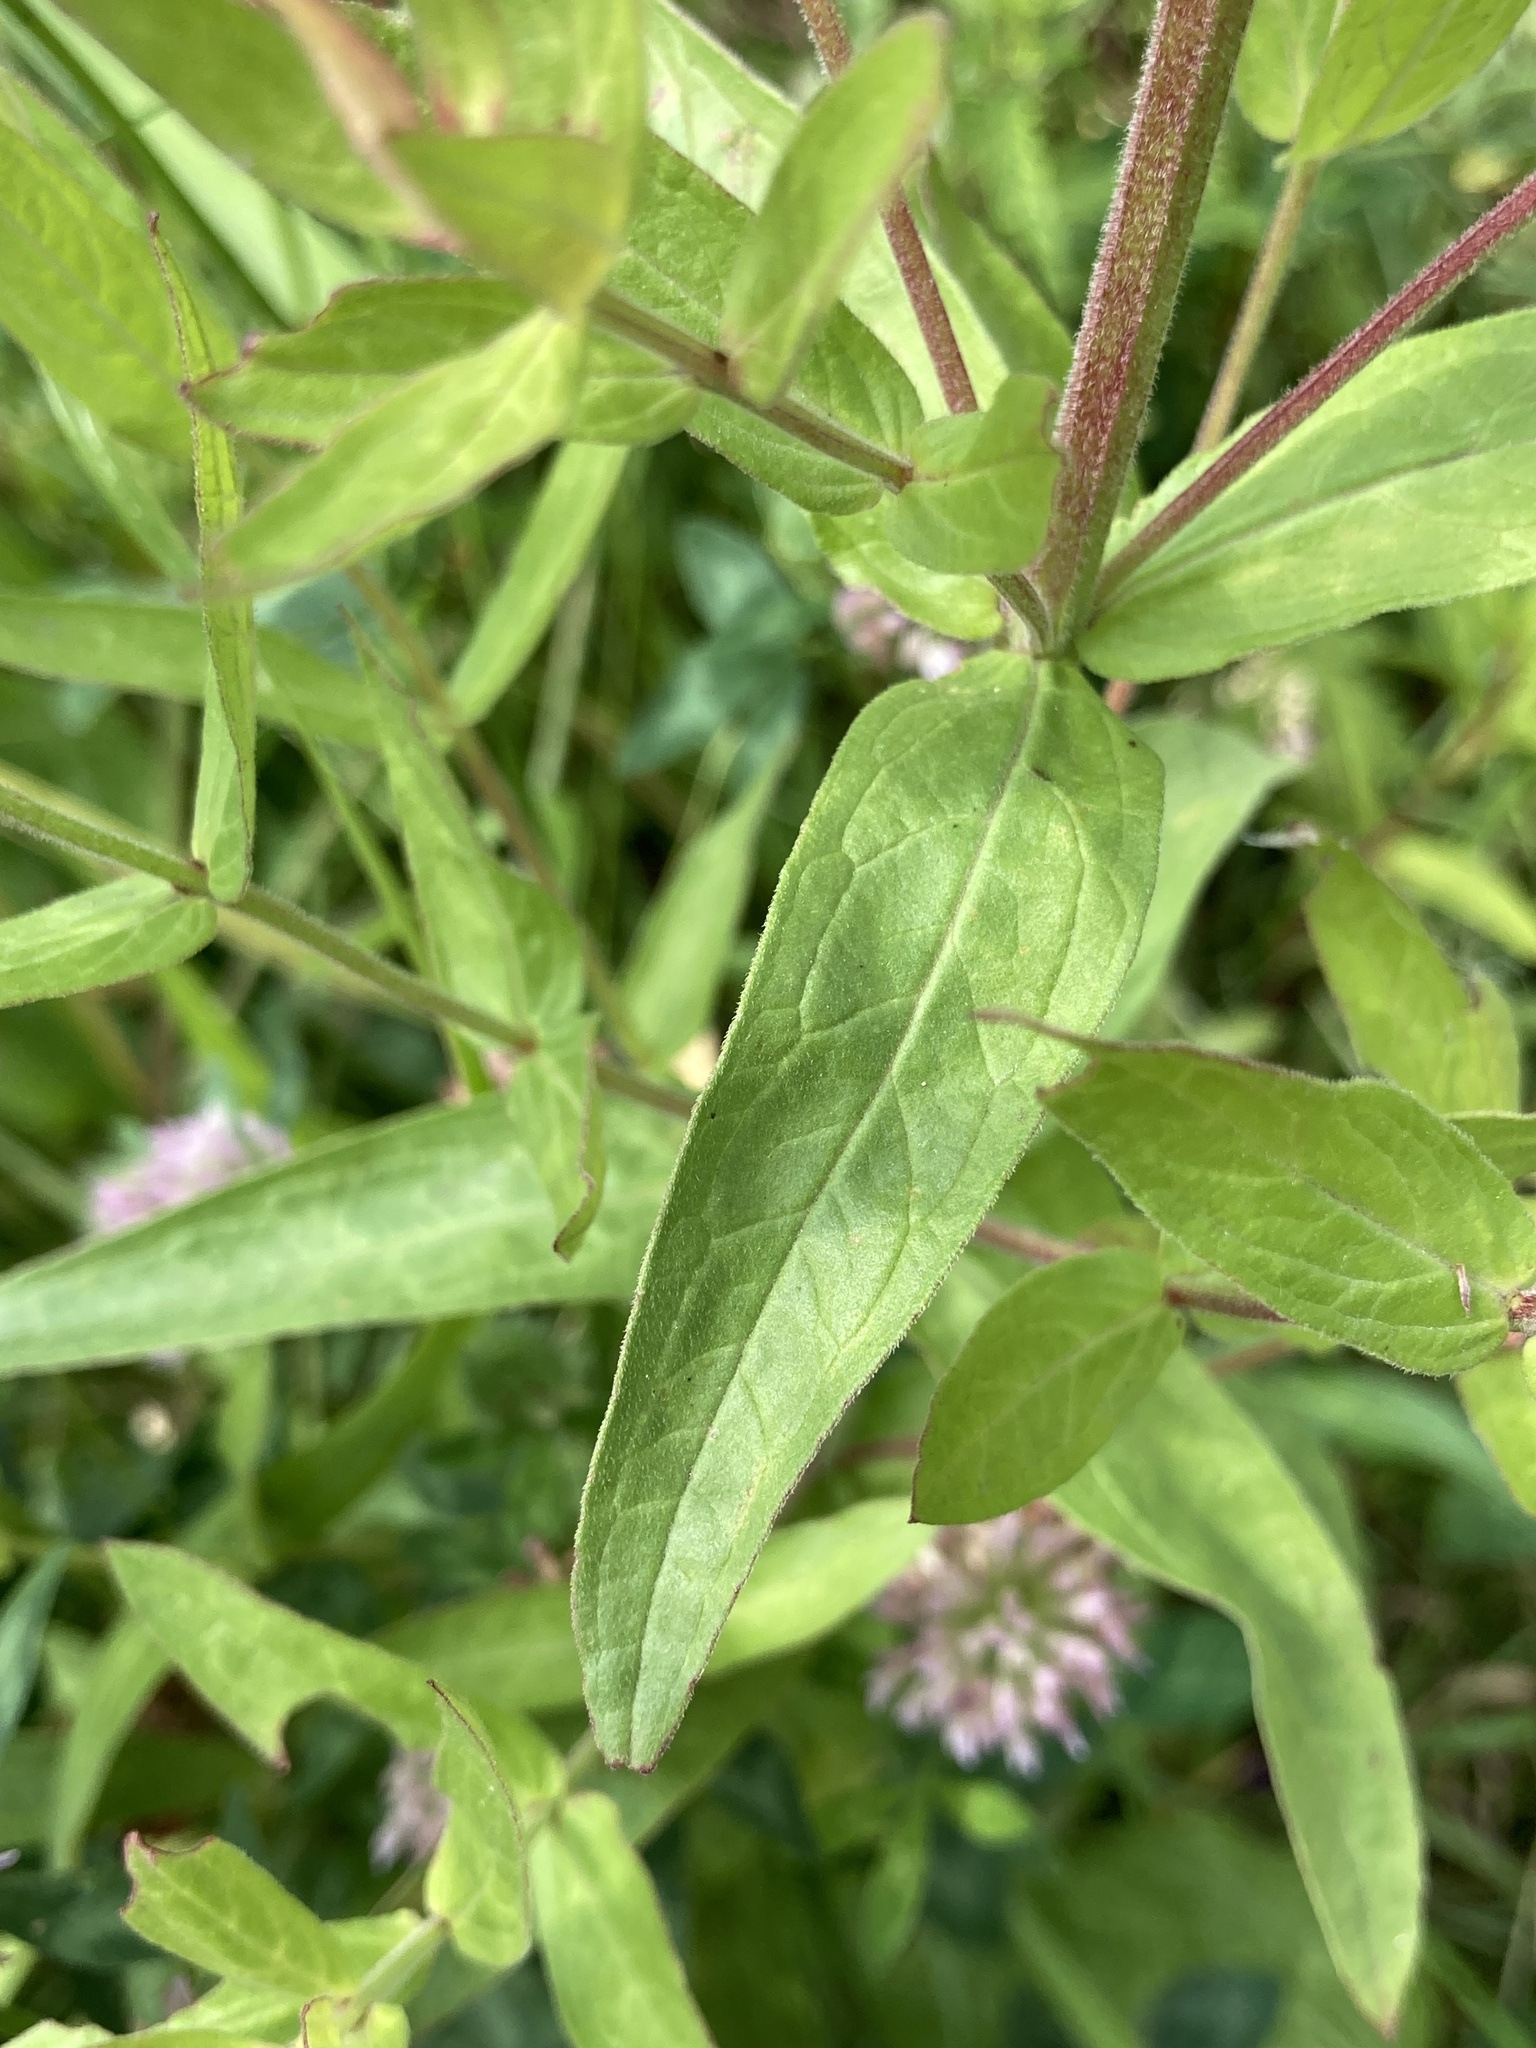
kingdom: Plantae
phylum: Tracheophyta
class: Magnoliopsida
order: Myrtales
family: Lythraceae
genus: Lythrum
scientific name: Lythrum salicaria
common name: Purple loosestrife
